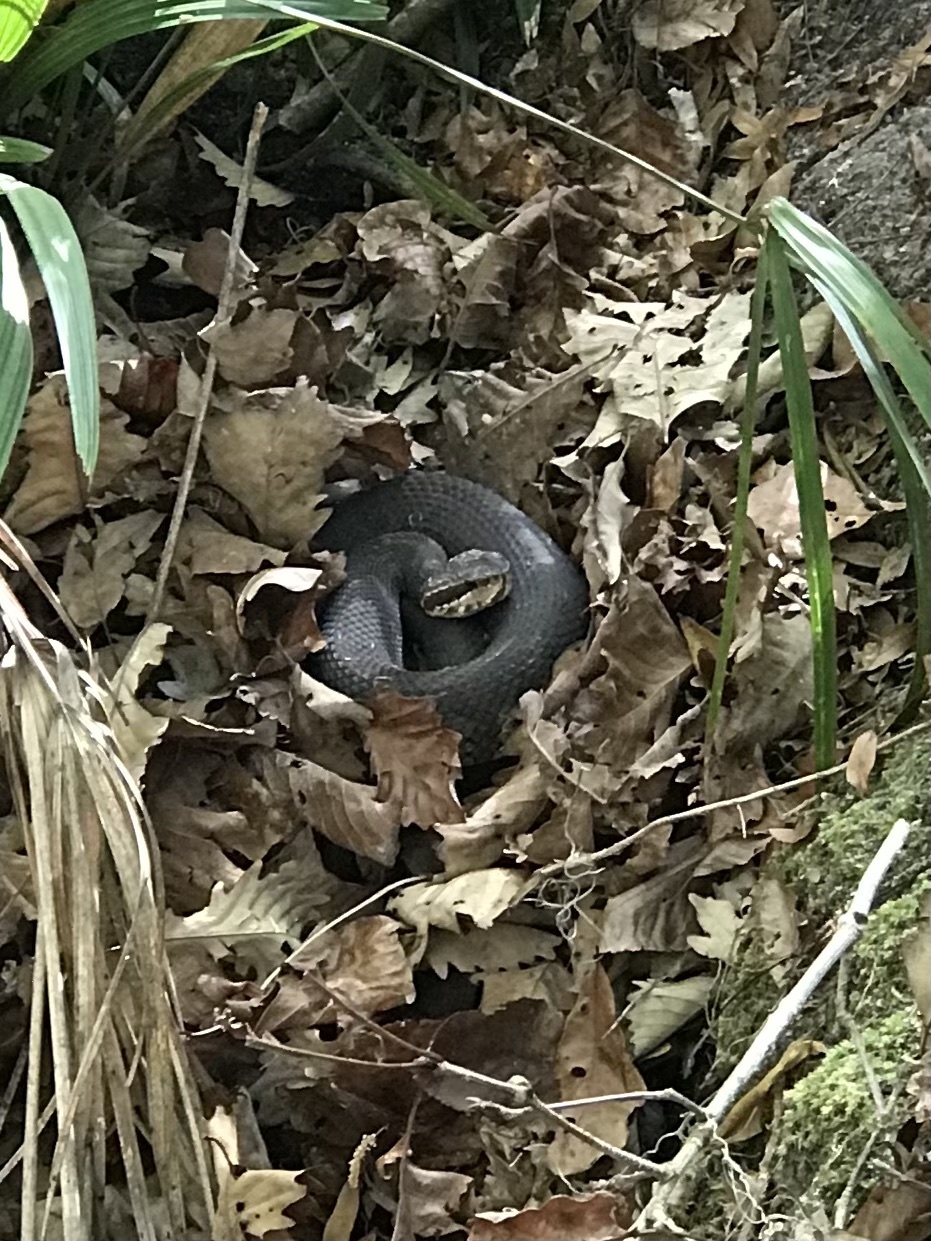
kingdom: Animalia
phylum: Chordata
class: Squamata
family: Viperidae
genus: Agkistrodon
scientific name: Agkistrodon conanti
